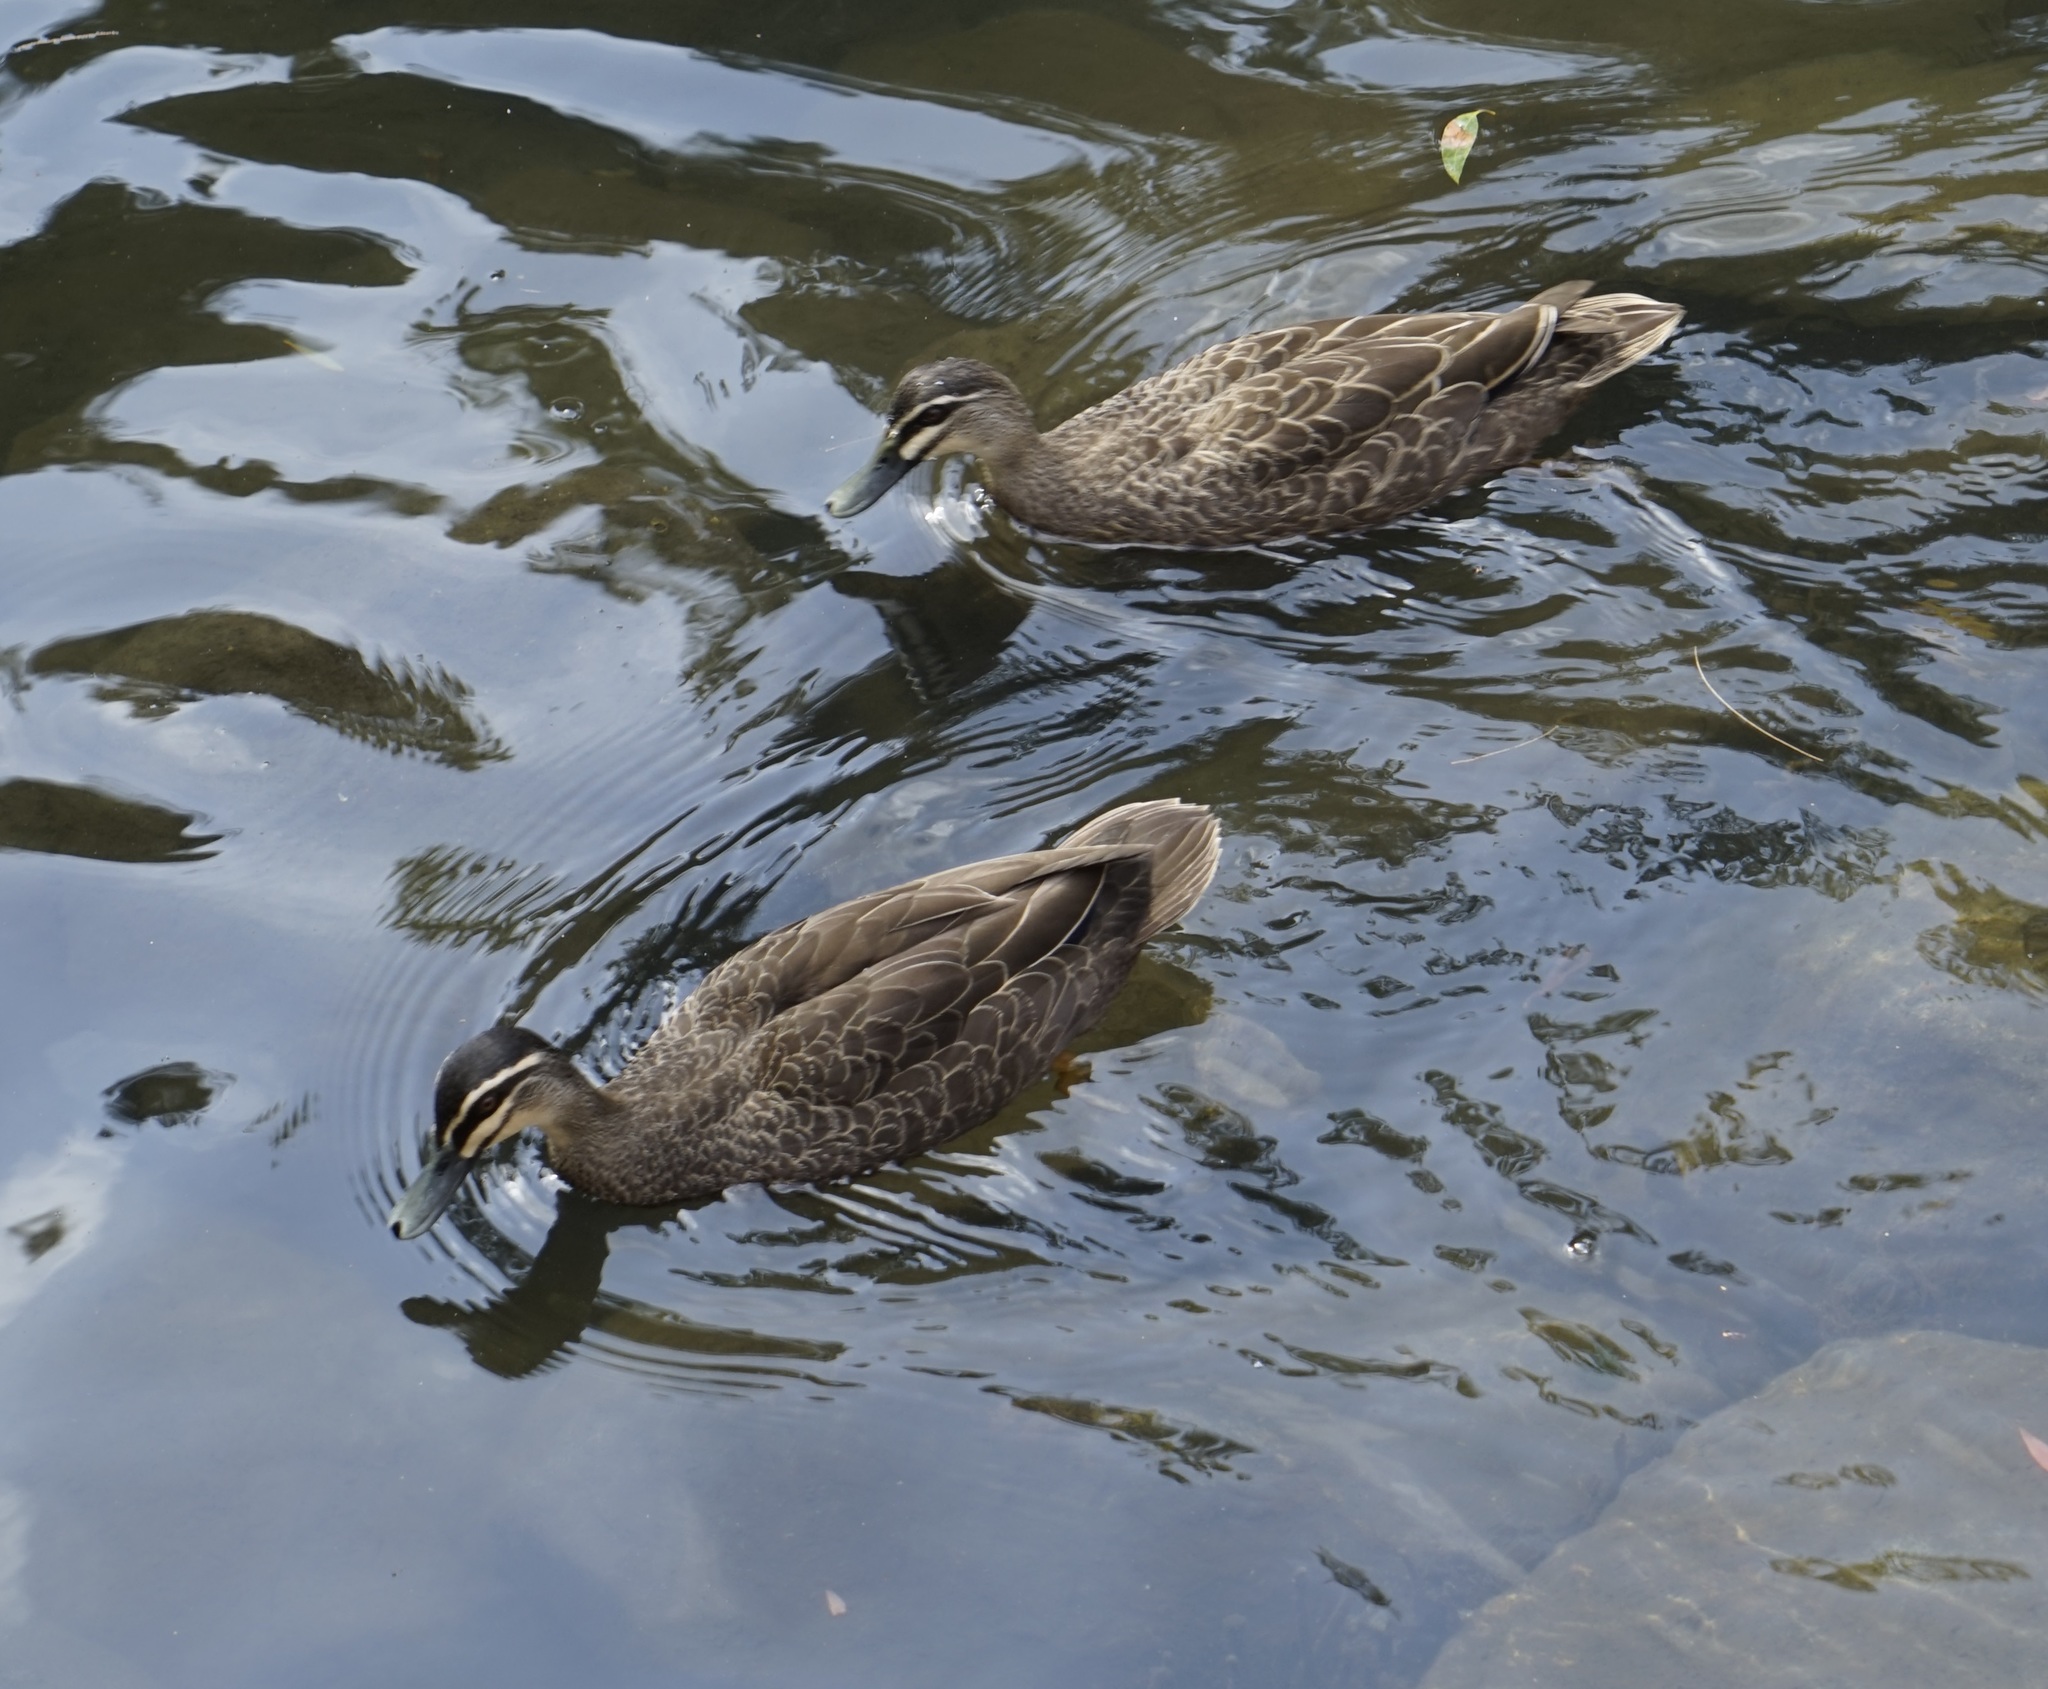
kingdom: Animalia
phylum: Chordata
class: Aves
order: Anseriformes
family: Anatidae
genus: Anas
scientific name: Anas superciliosa
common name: Pacific black duck
